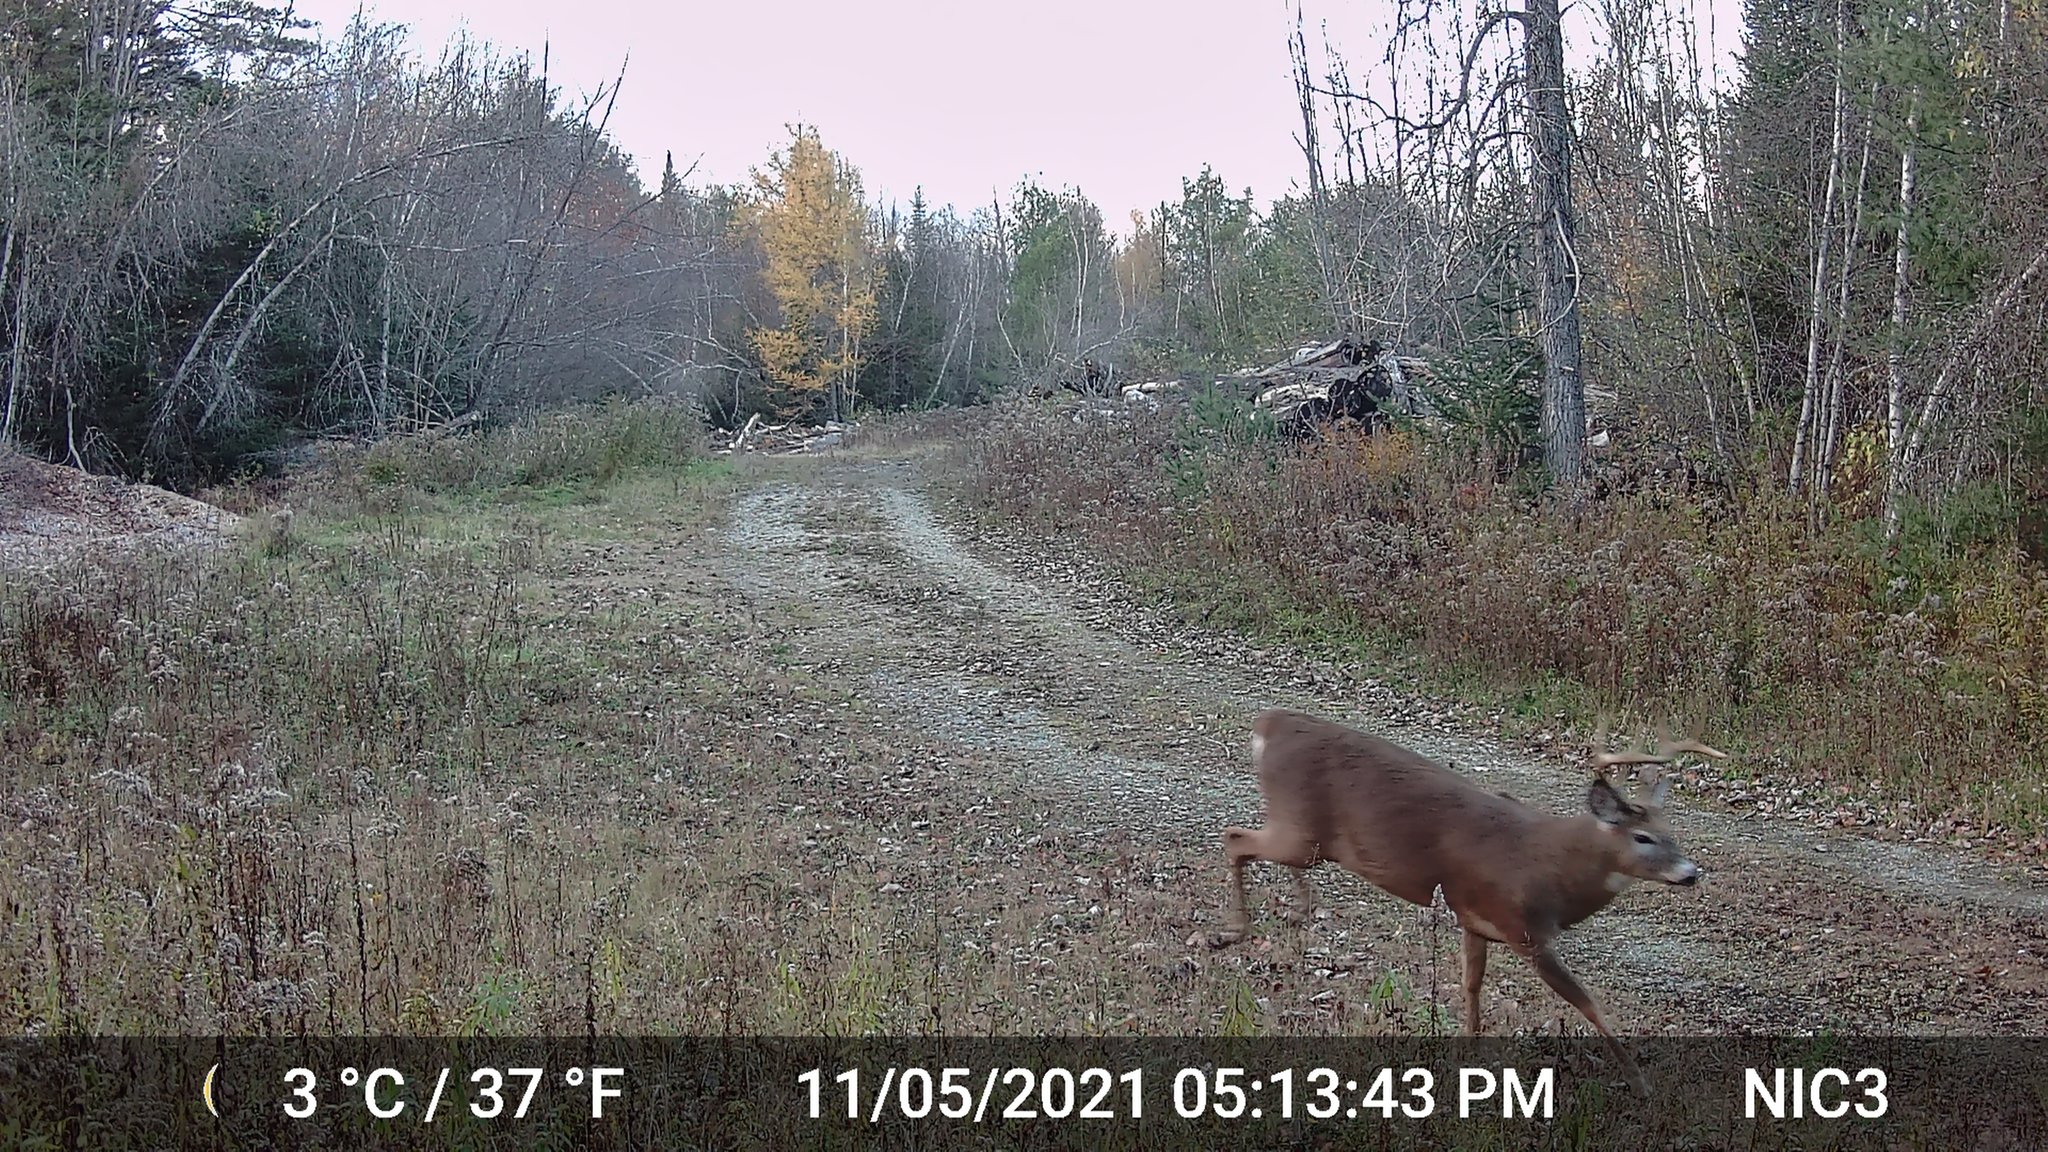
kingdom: Animalia
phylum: Chordata
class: Mammalia
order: Artiodactyla
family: Cervidae
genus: Odocoileus
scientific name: Odocoileus virginianus
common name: White-tailed deer
